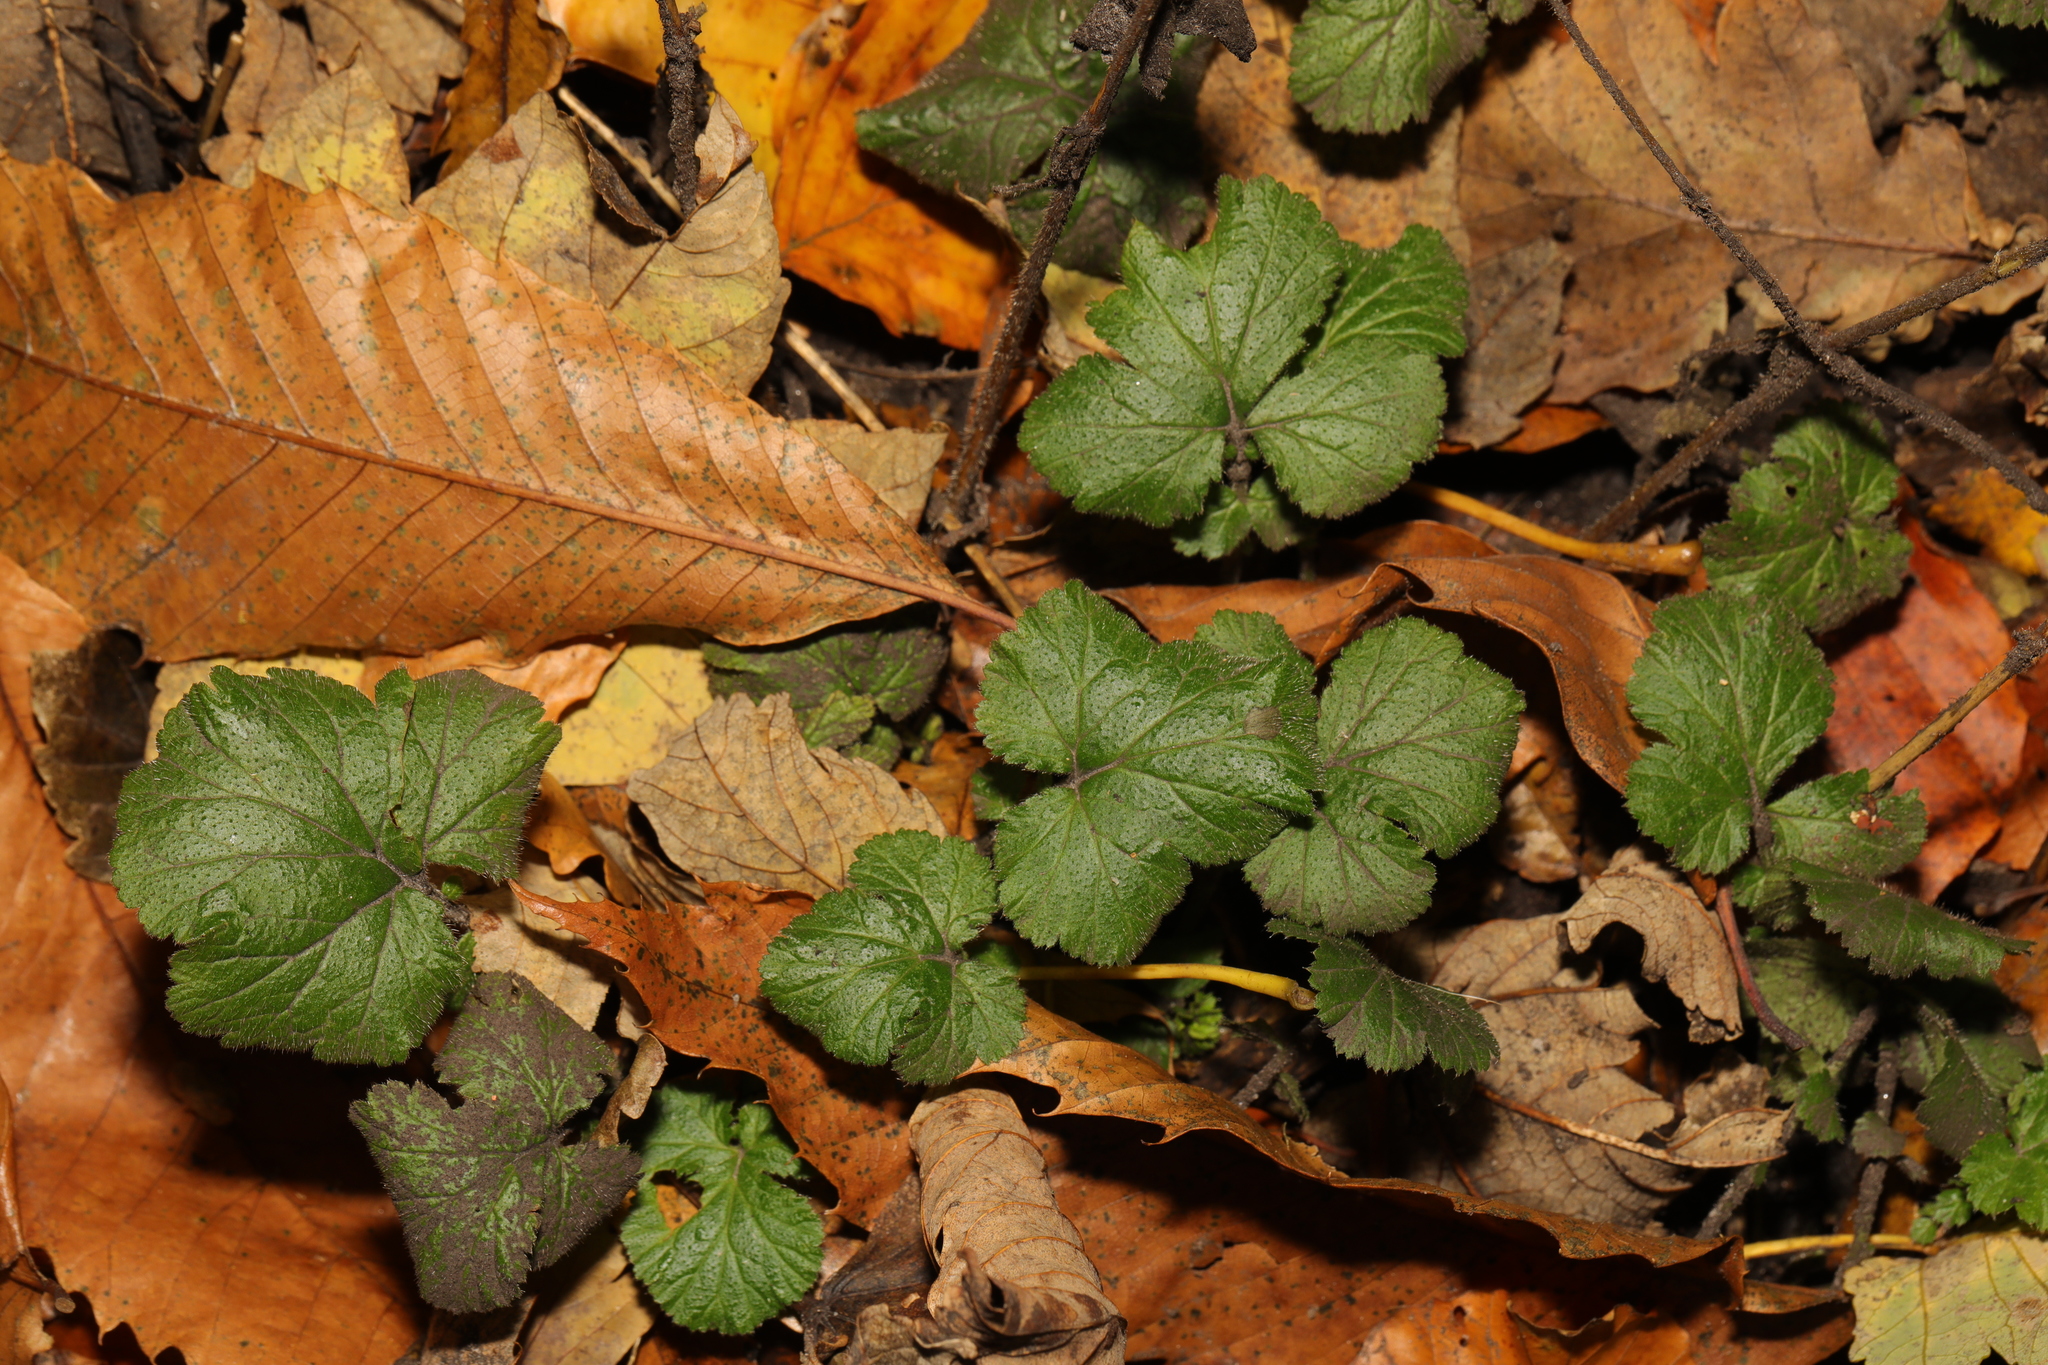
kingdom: Plantae
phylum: Tracheophyta
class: Magnoliopsida
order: Rosales
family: Rosaceae
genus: Geum
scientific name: Geum urbanum
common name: Wood avens
